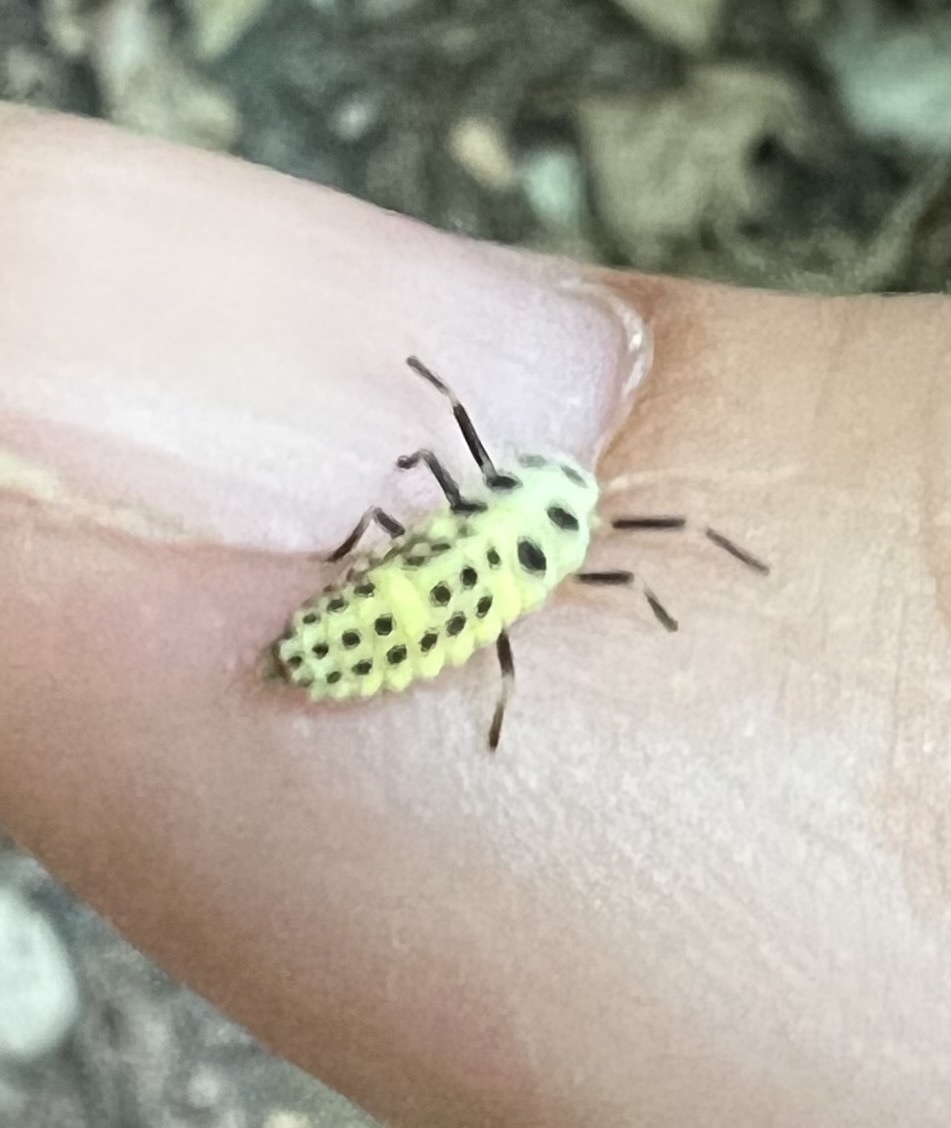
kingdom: Animalia
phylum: Arthropoda
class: Insecta
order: Coleoptera
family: Coccinellidae
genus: Calvia
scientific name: Calvia decemguttata
